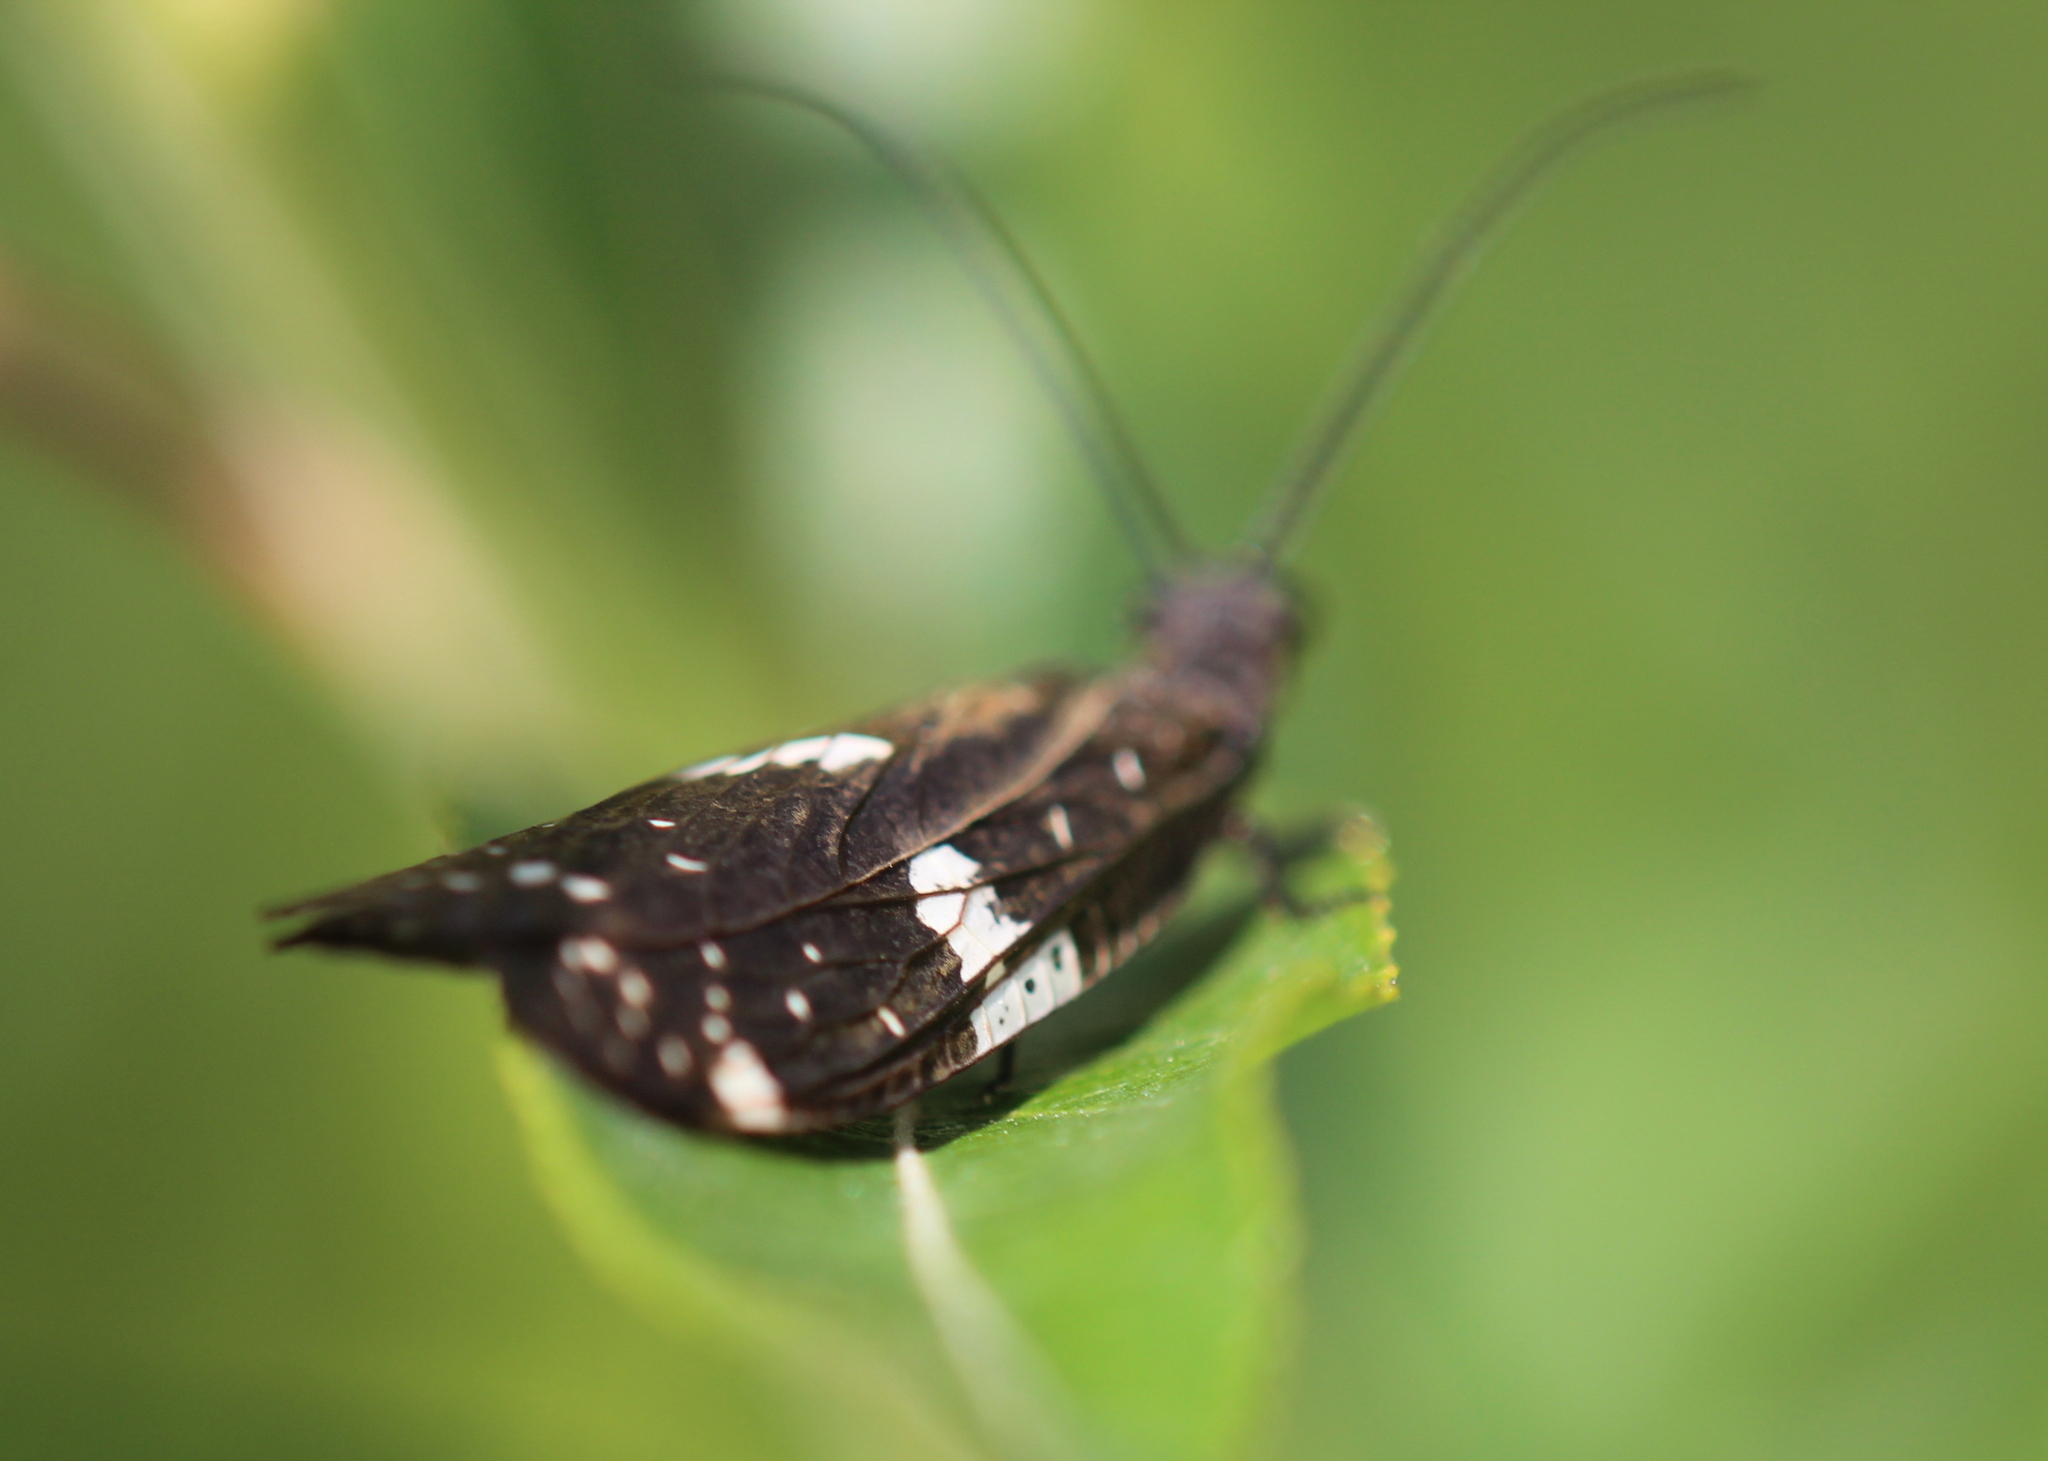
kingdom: Animalia
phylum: Arthropoda
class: Insecta
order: Megaloptera
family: Corydalidae
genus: Nigronia
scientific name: Nigronia serricornis
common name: Serrate dark fishfly
